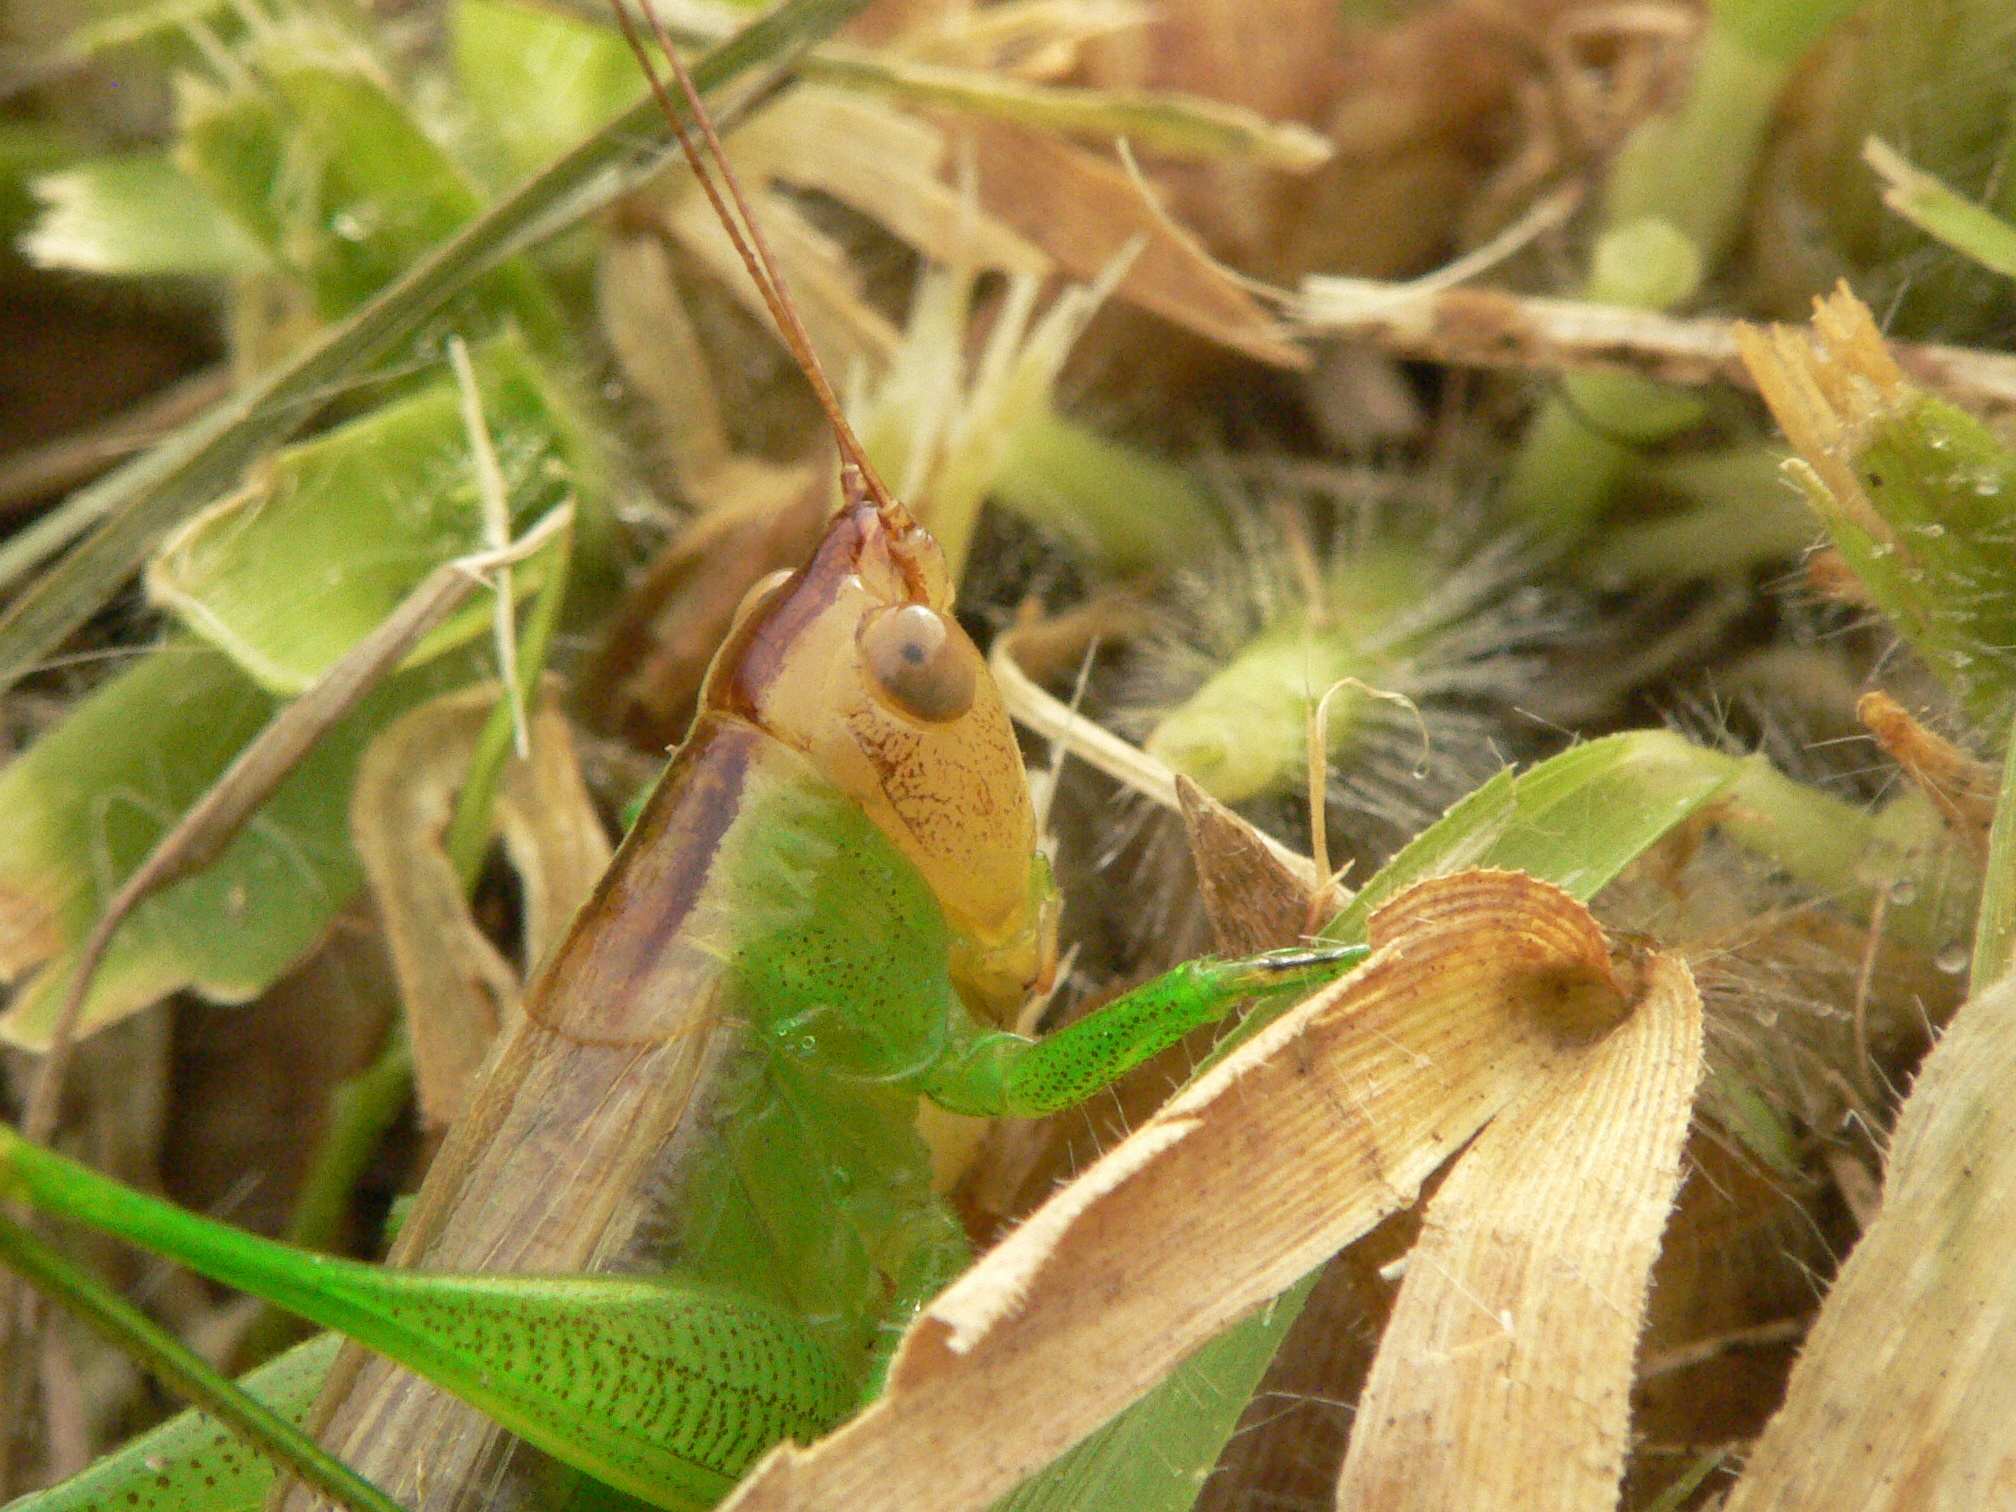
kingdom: Animalia
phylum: Arthropoda
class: Insecta
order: Orthoptera
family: Tettigoniidae
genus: Orchelimum
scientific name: Orchelimum agilis
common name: Agile meadow grasshopper
